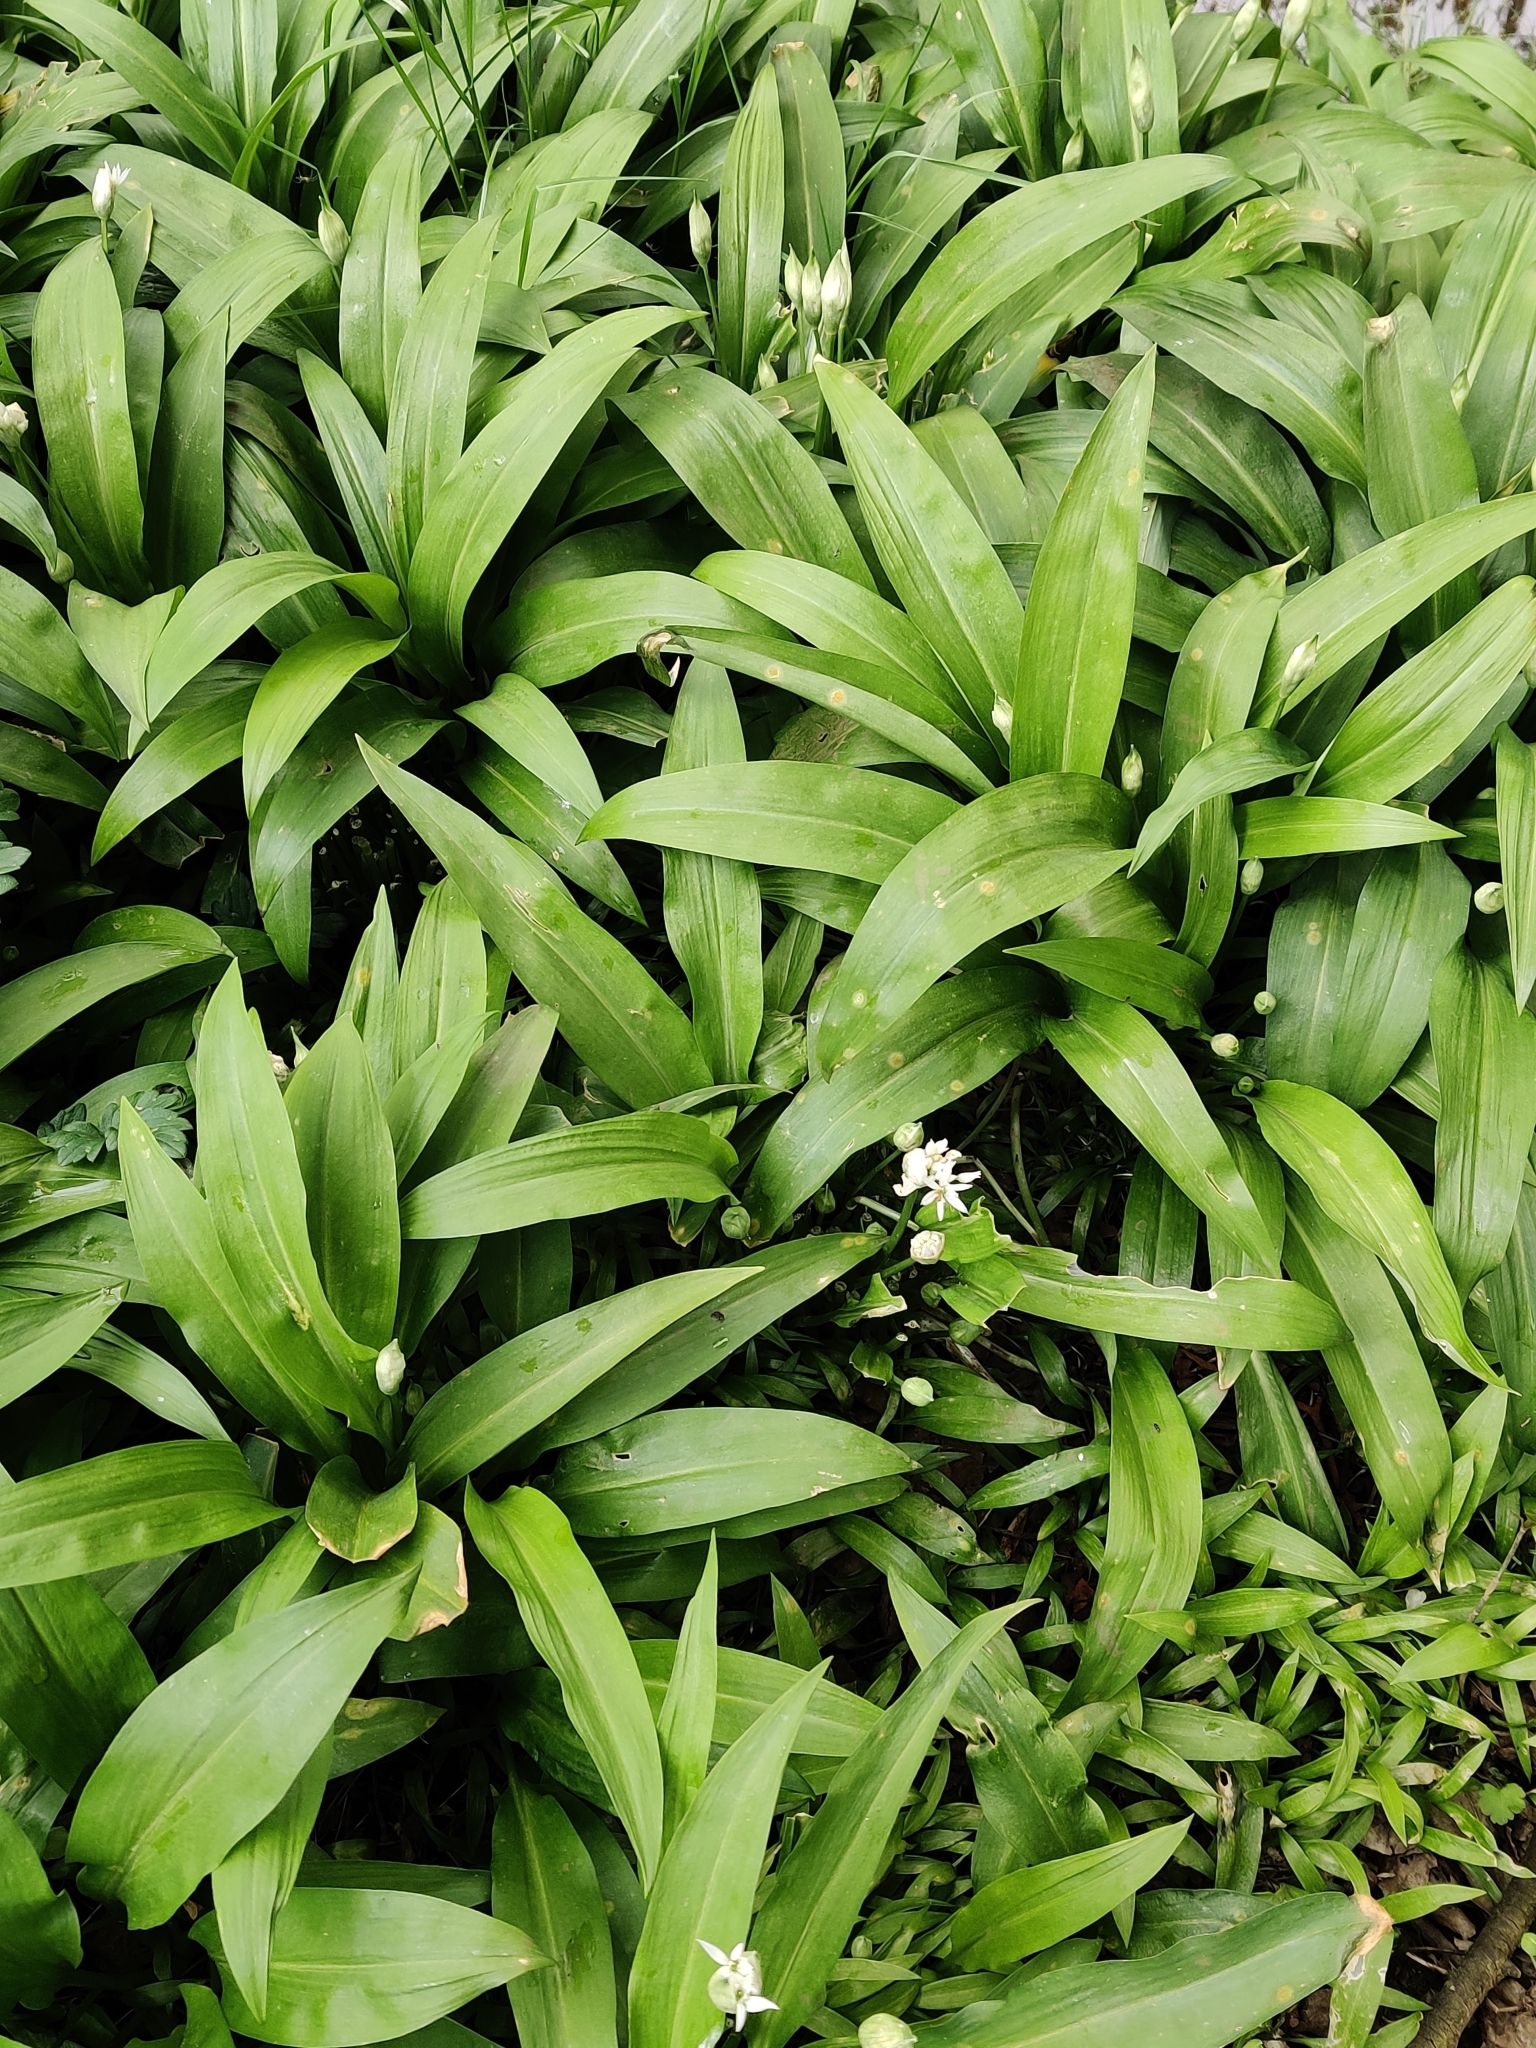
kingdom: Plantae
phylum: Tracheophyta
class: Liliopsida
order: Asparagales
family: Amaryllidaceae
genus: Allium
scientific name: Allium ursinum
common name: Ramsons
